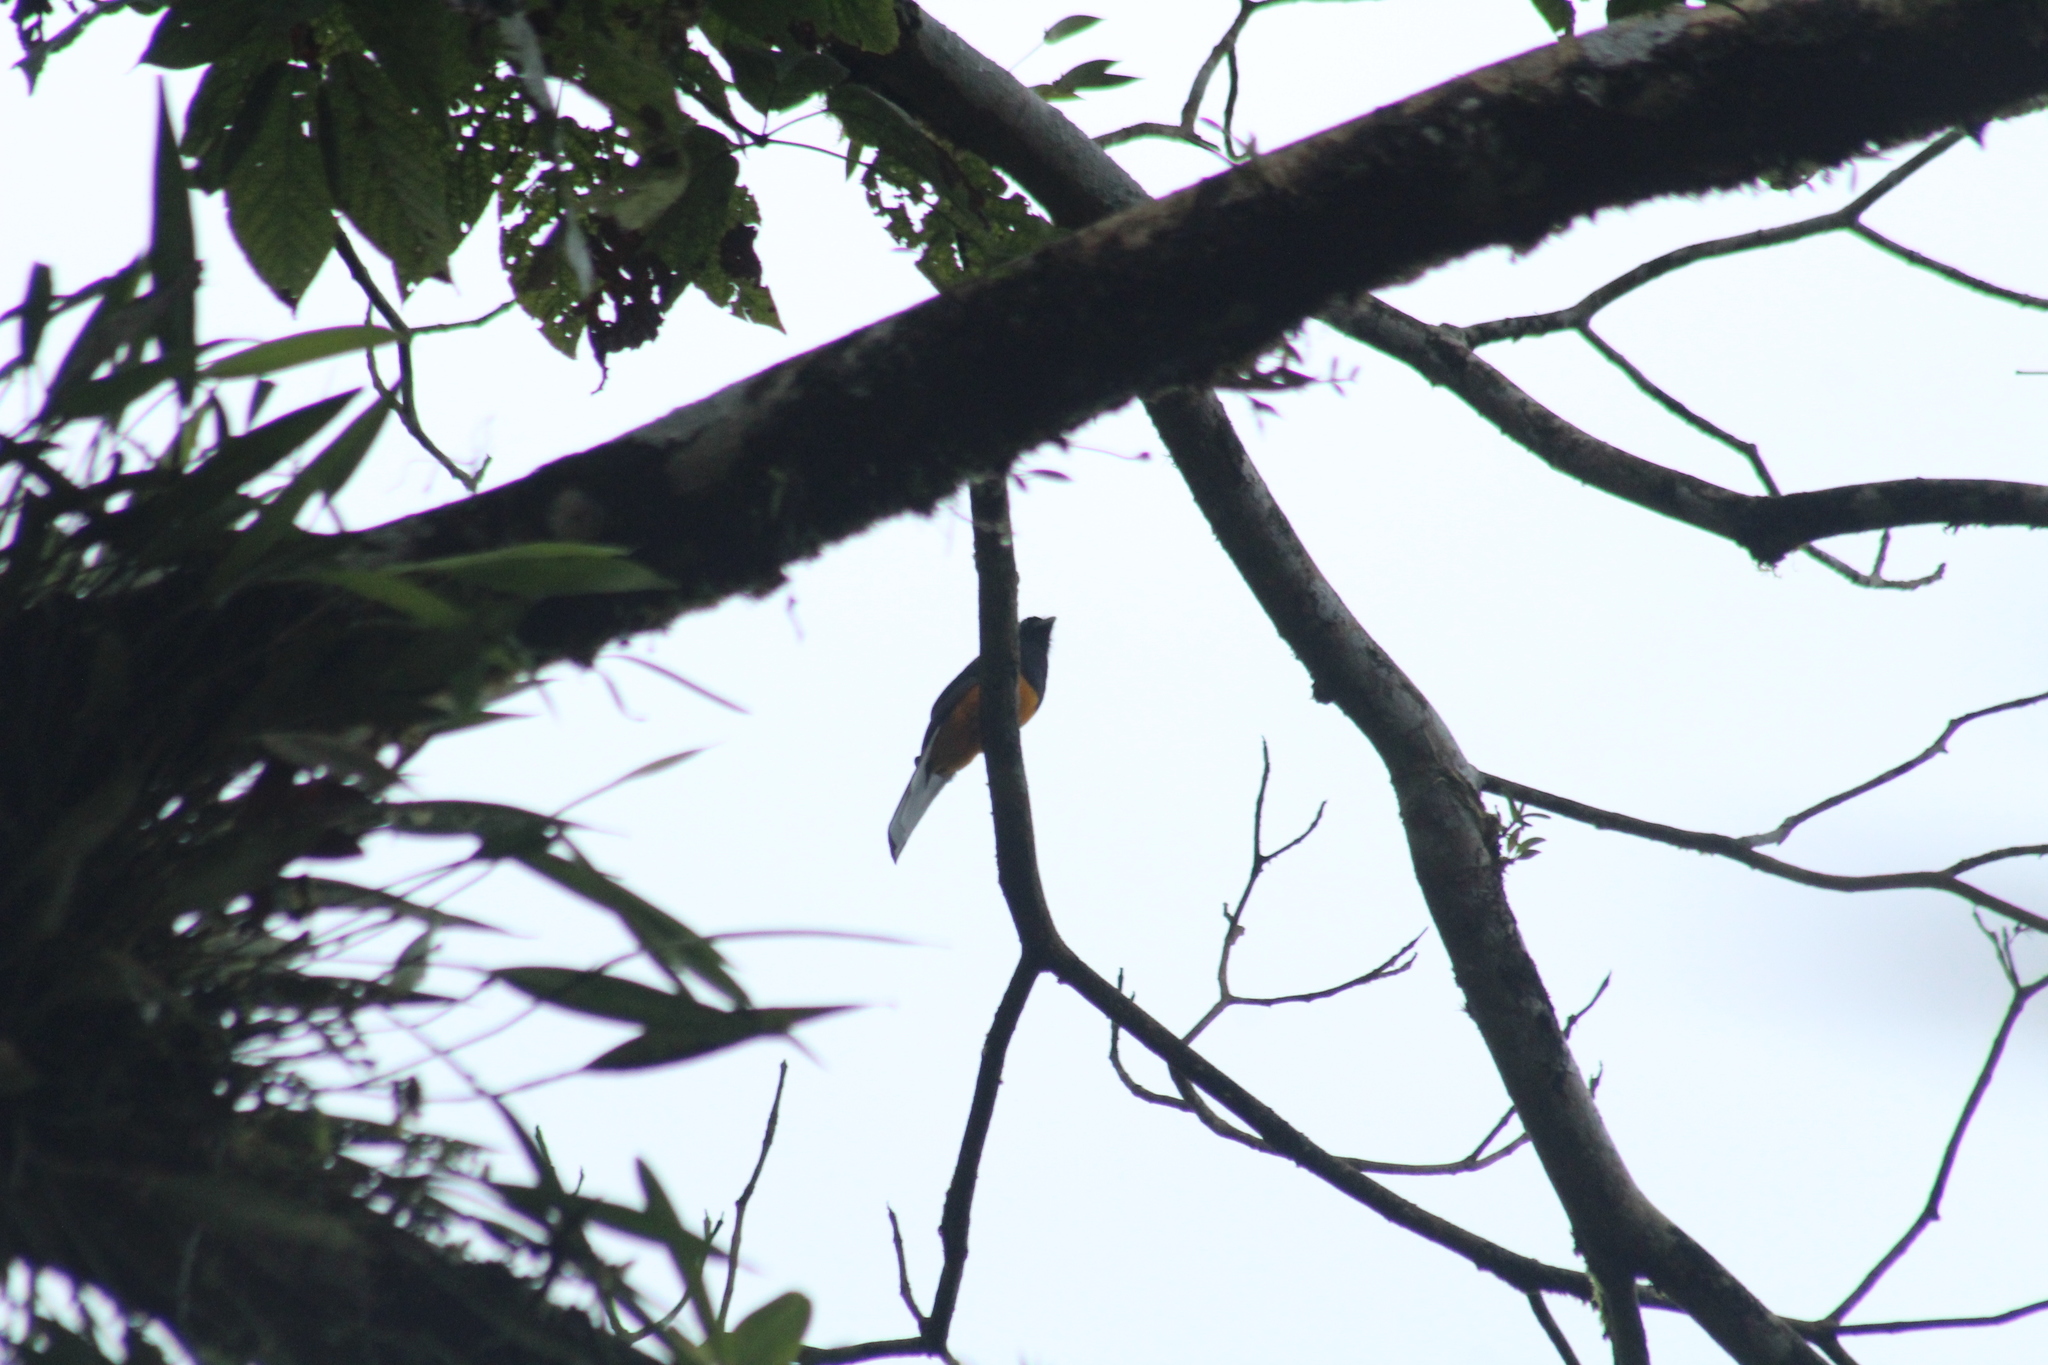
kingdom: Animalia
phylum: Chordata
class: Aves
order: Trogoniformes
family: Trogonidae
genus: Trogon
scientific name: Trogon chionurus
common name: White-tailed trogon
